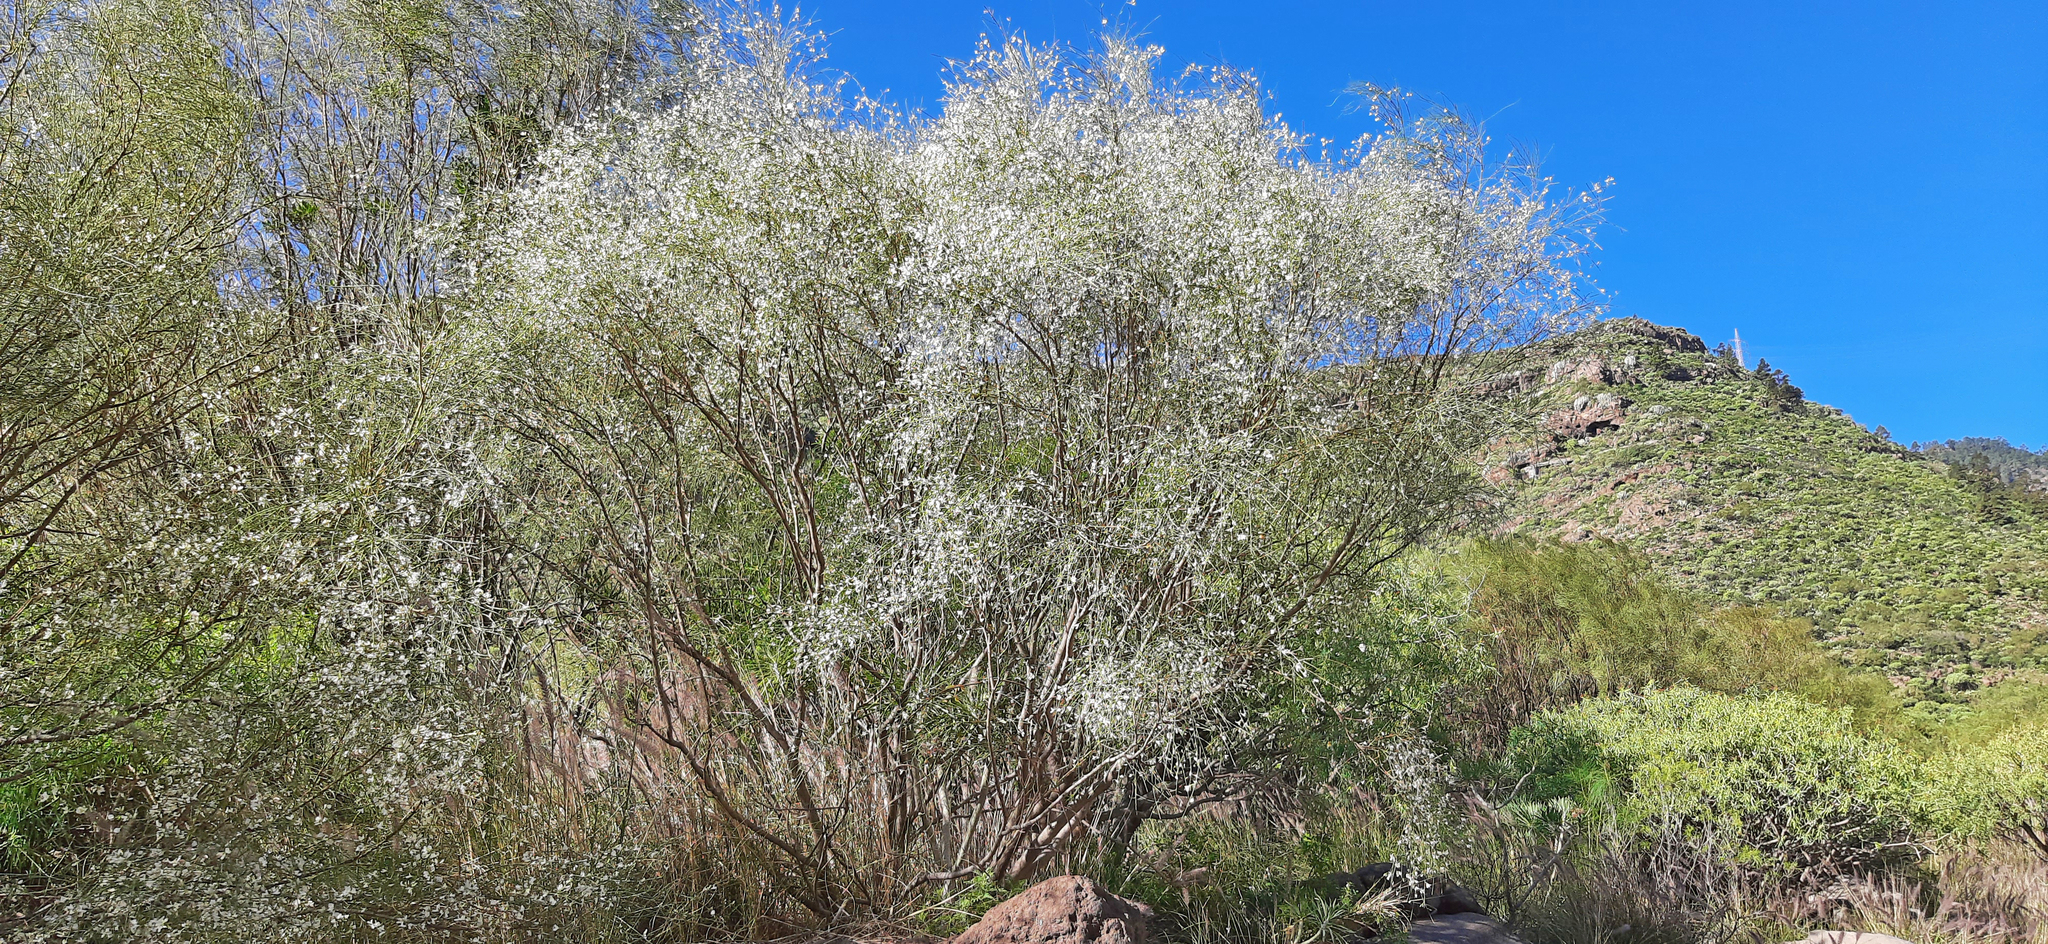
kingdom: Plantae
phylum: Tracheophyta
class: Magnoliopsida
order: Fabales
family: Fabaceae
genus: Retama
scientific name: Retama rhodorhizoides
